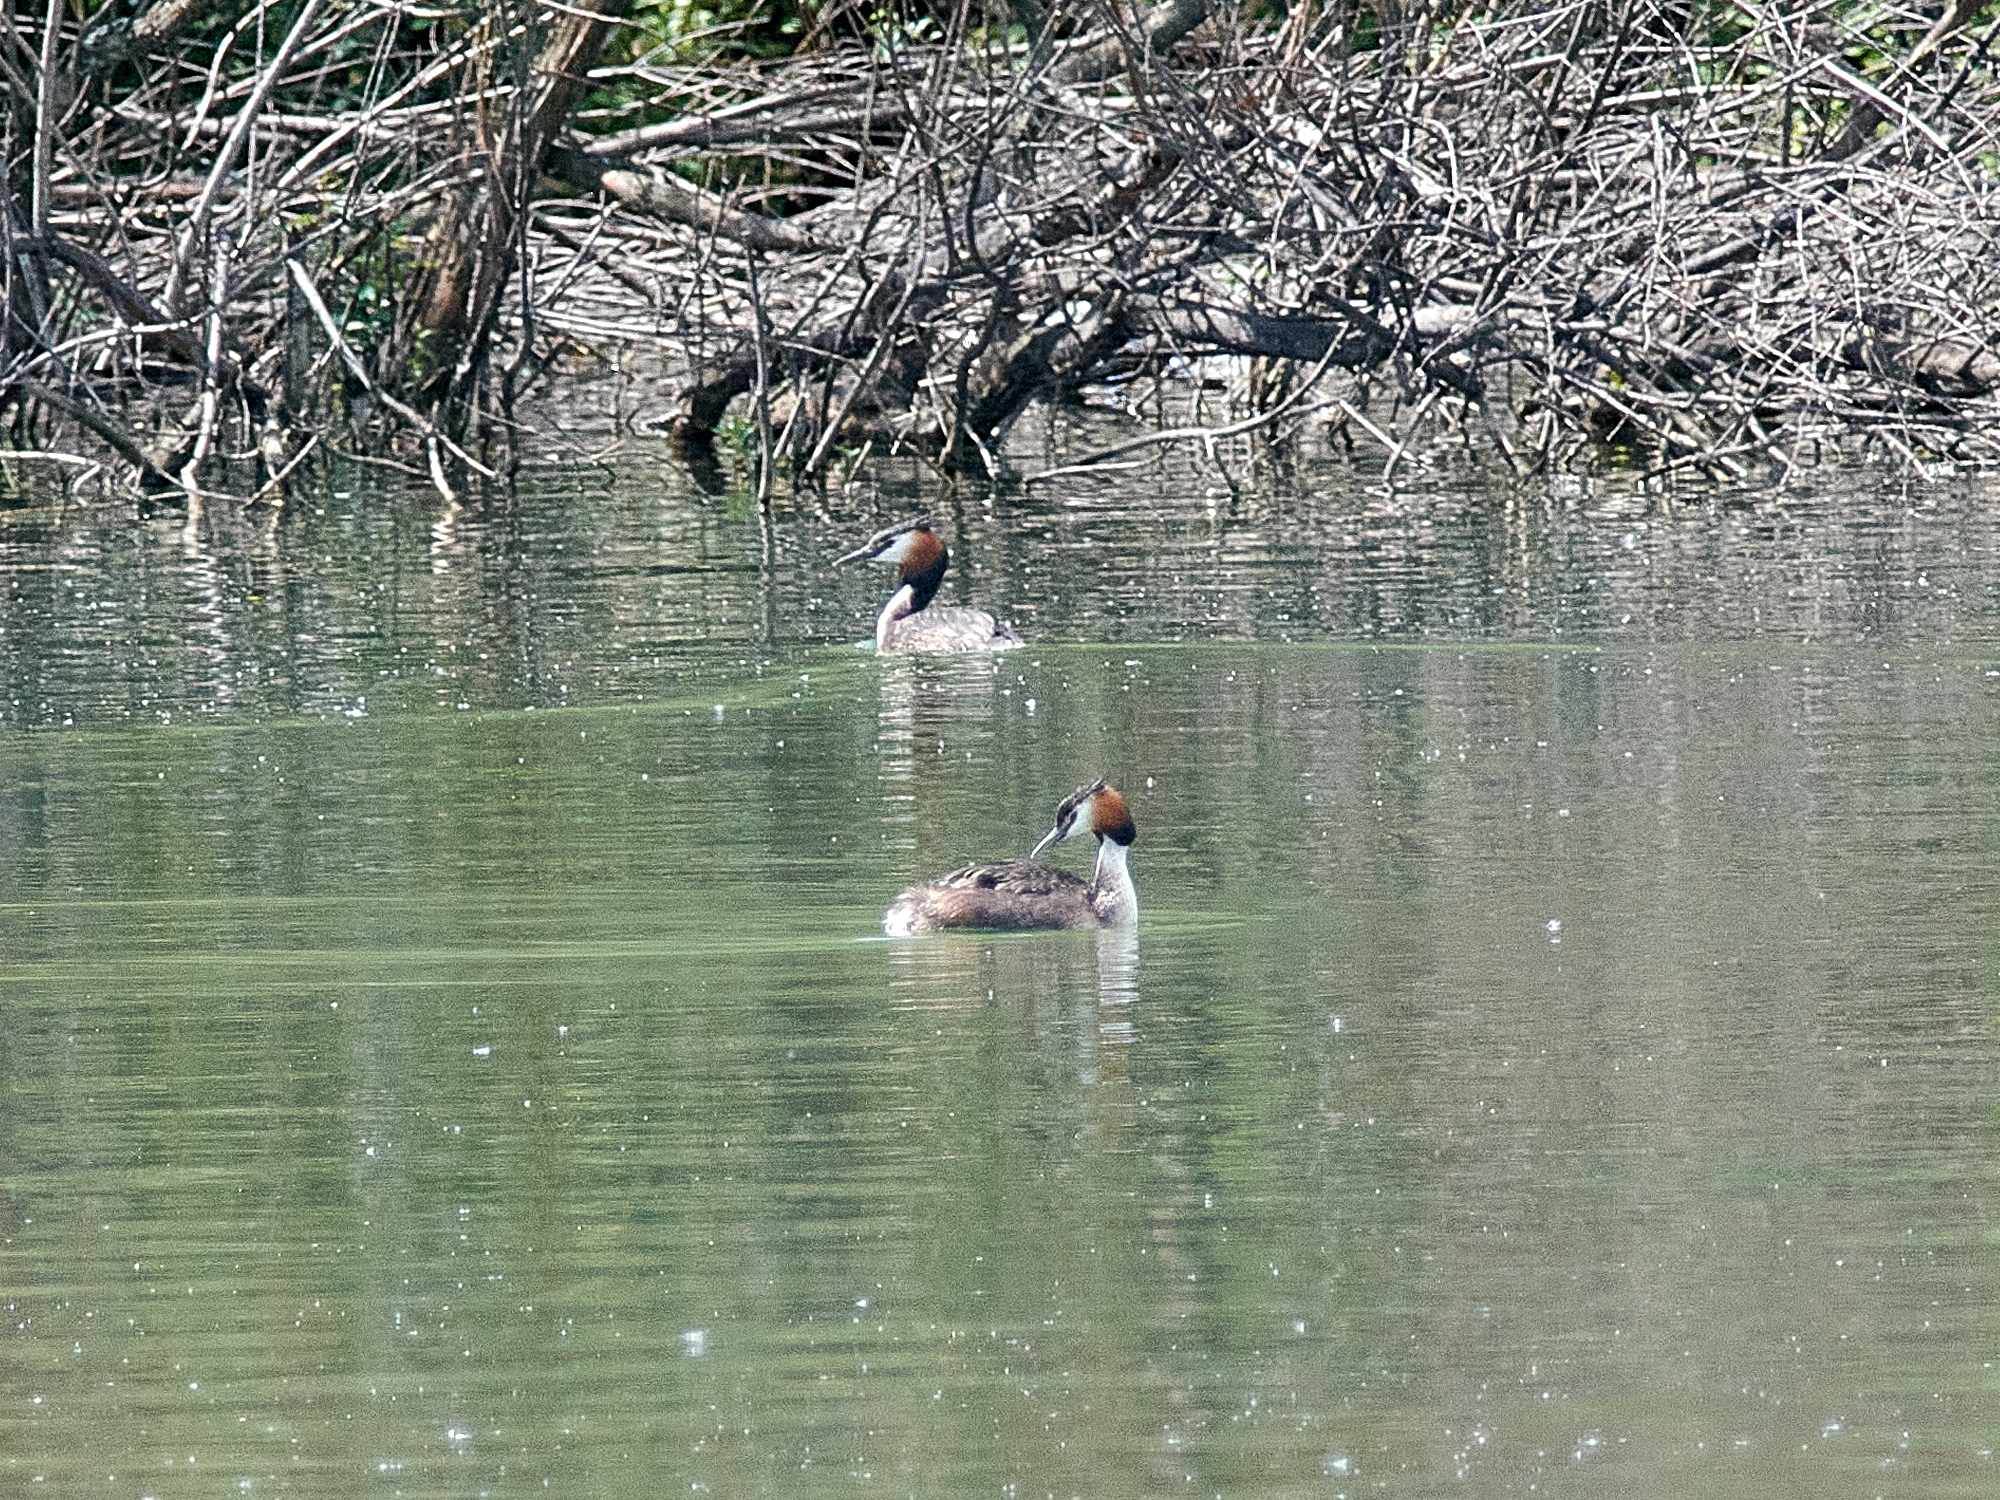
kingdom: Animalia
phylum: Chordata
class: Aves
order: Podicipediformes
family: Podicipedidae
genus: Podiceps
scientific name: Podiceps cristatus
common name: Great crested grebe
